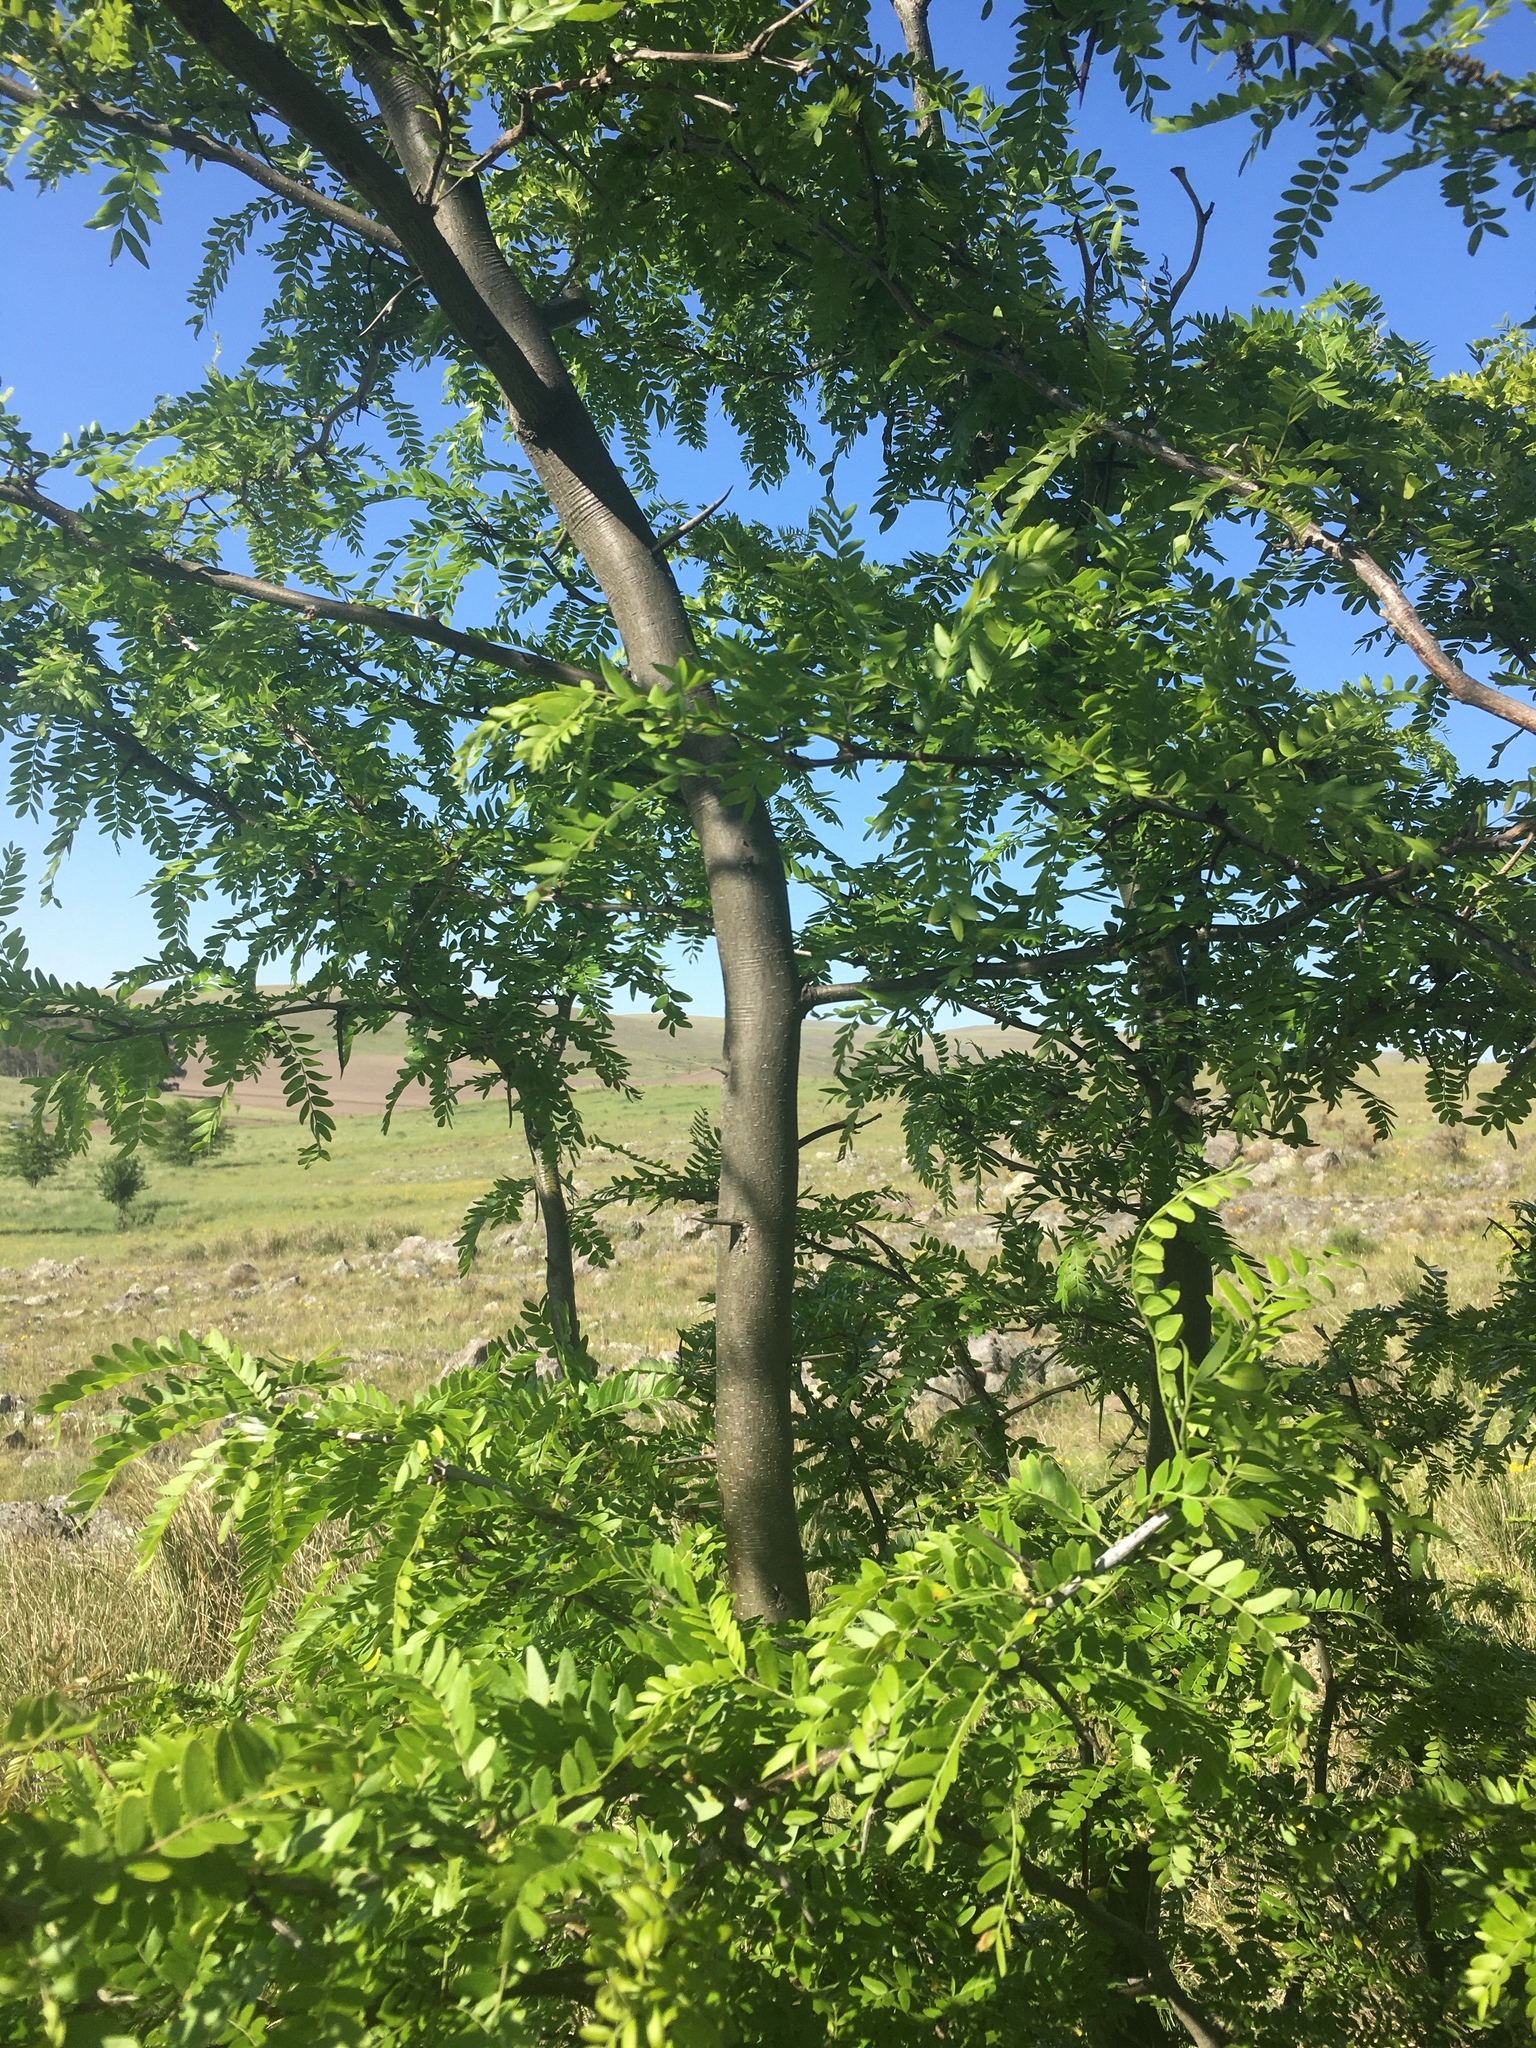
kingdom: Plantae
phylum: Tracheophyta
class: Magnoliopsida
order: Fabales
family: Fabaceae
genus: Gleditsia
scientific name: Gleditsia triacanthos
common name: Common honeylocust
